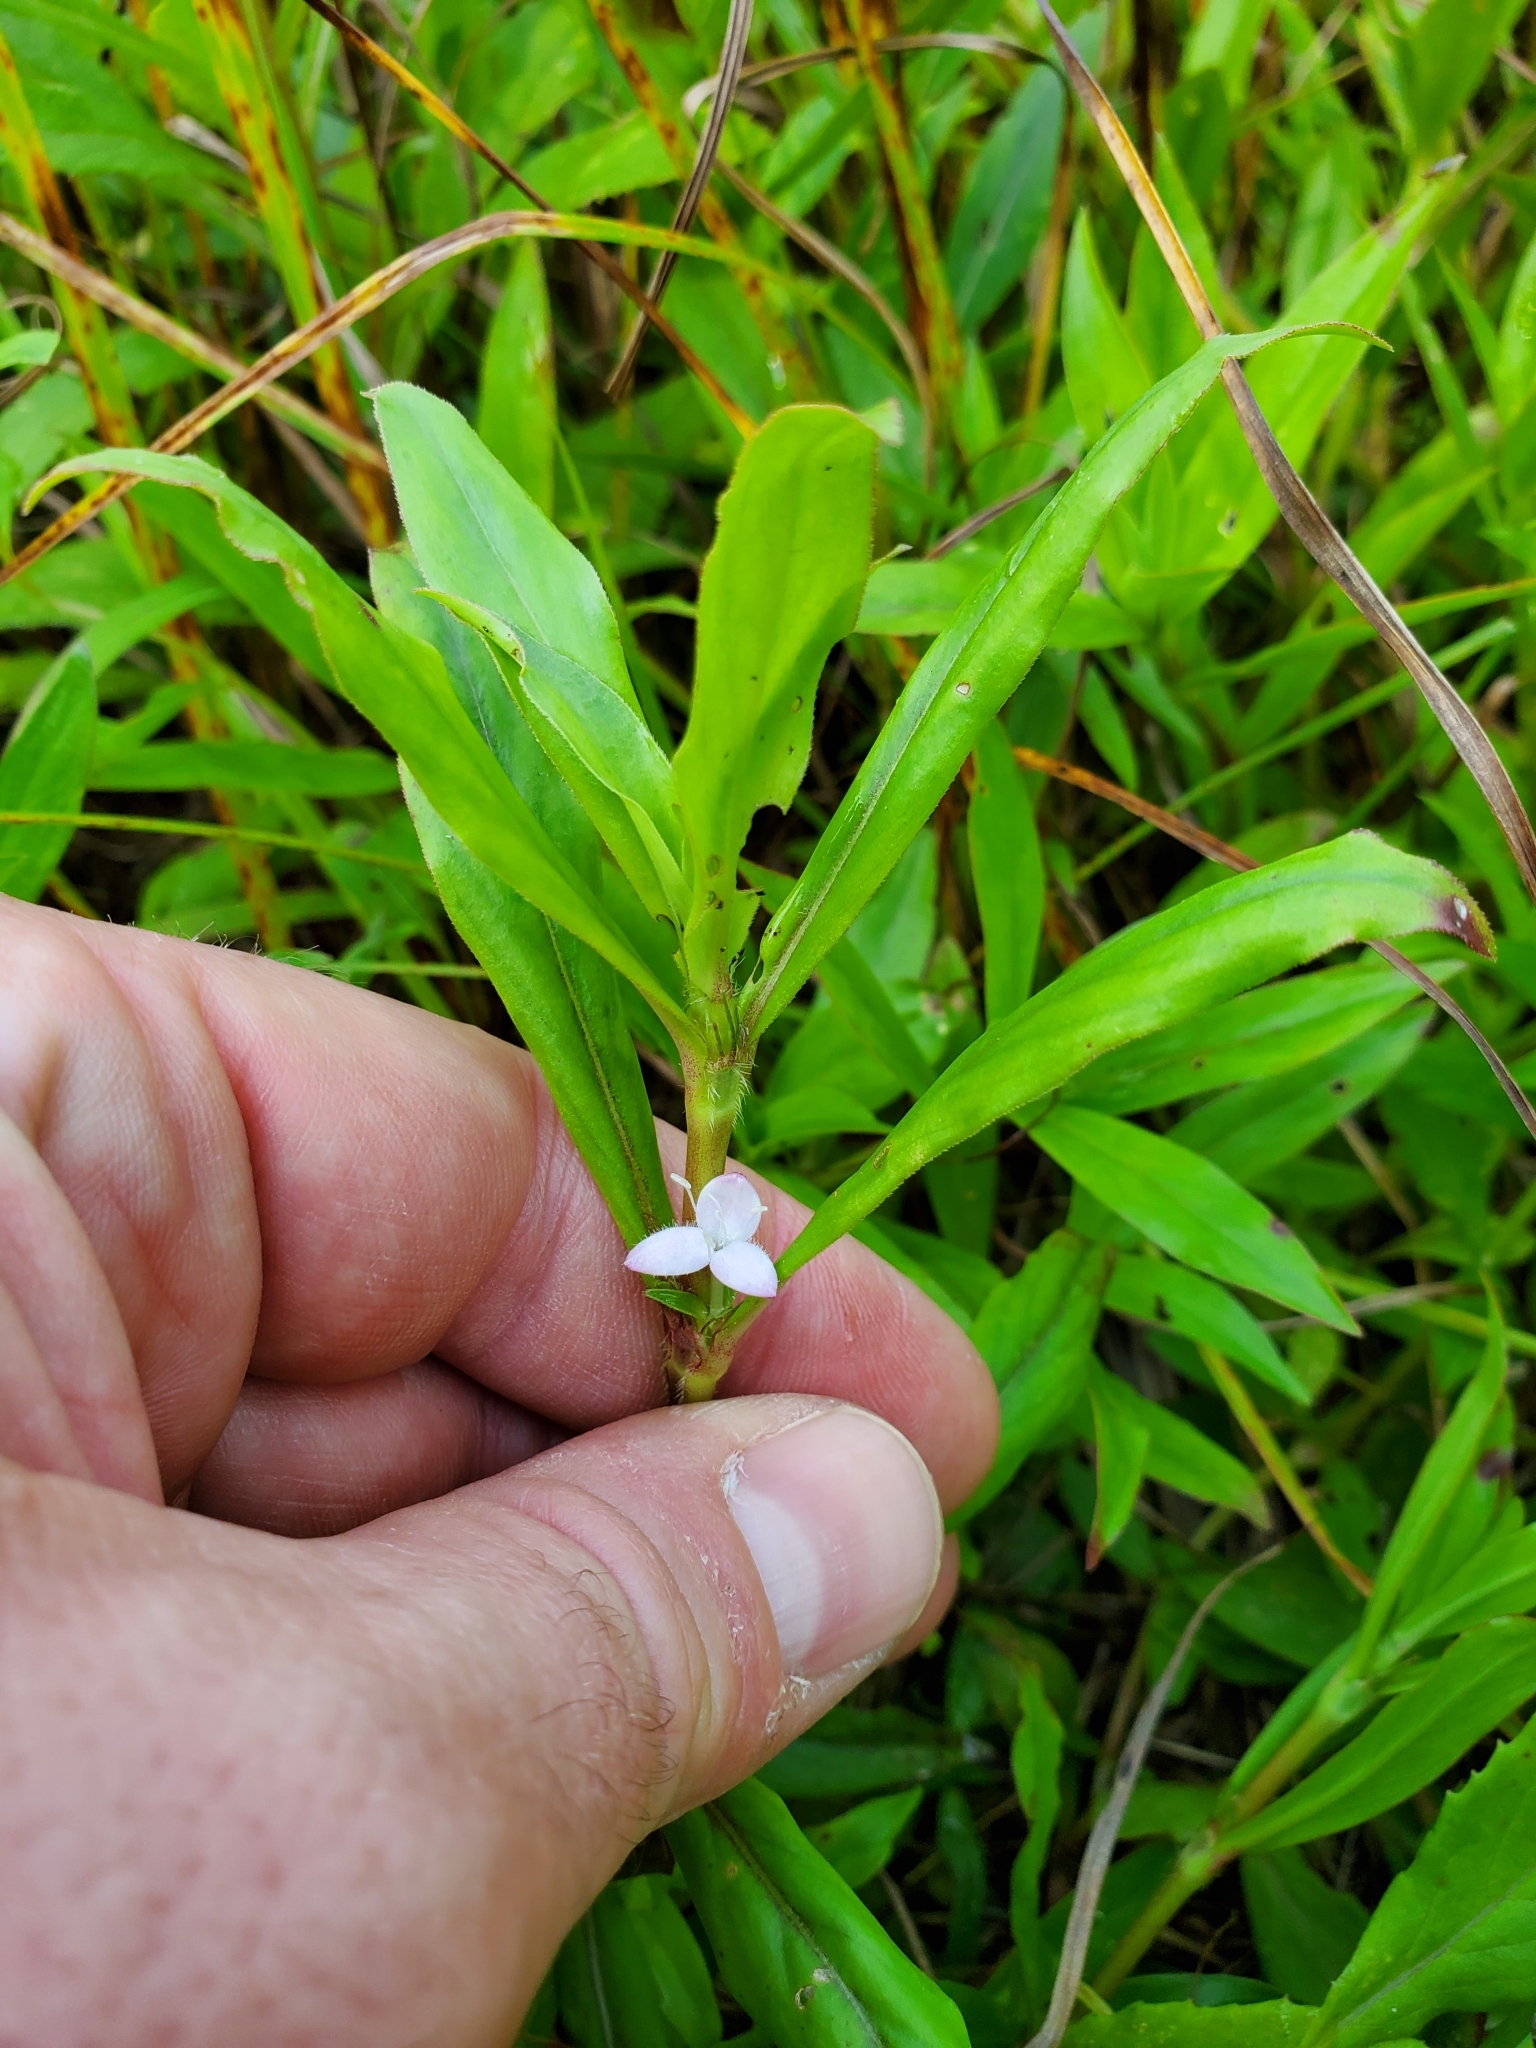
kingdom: Plantae
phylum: Tracheophyta
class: Magnoliopsida
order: Gentianales
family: Rubiaceae
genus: Diodia
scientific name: Diodia virginiana
